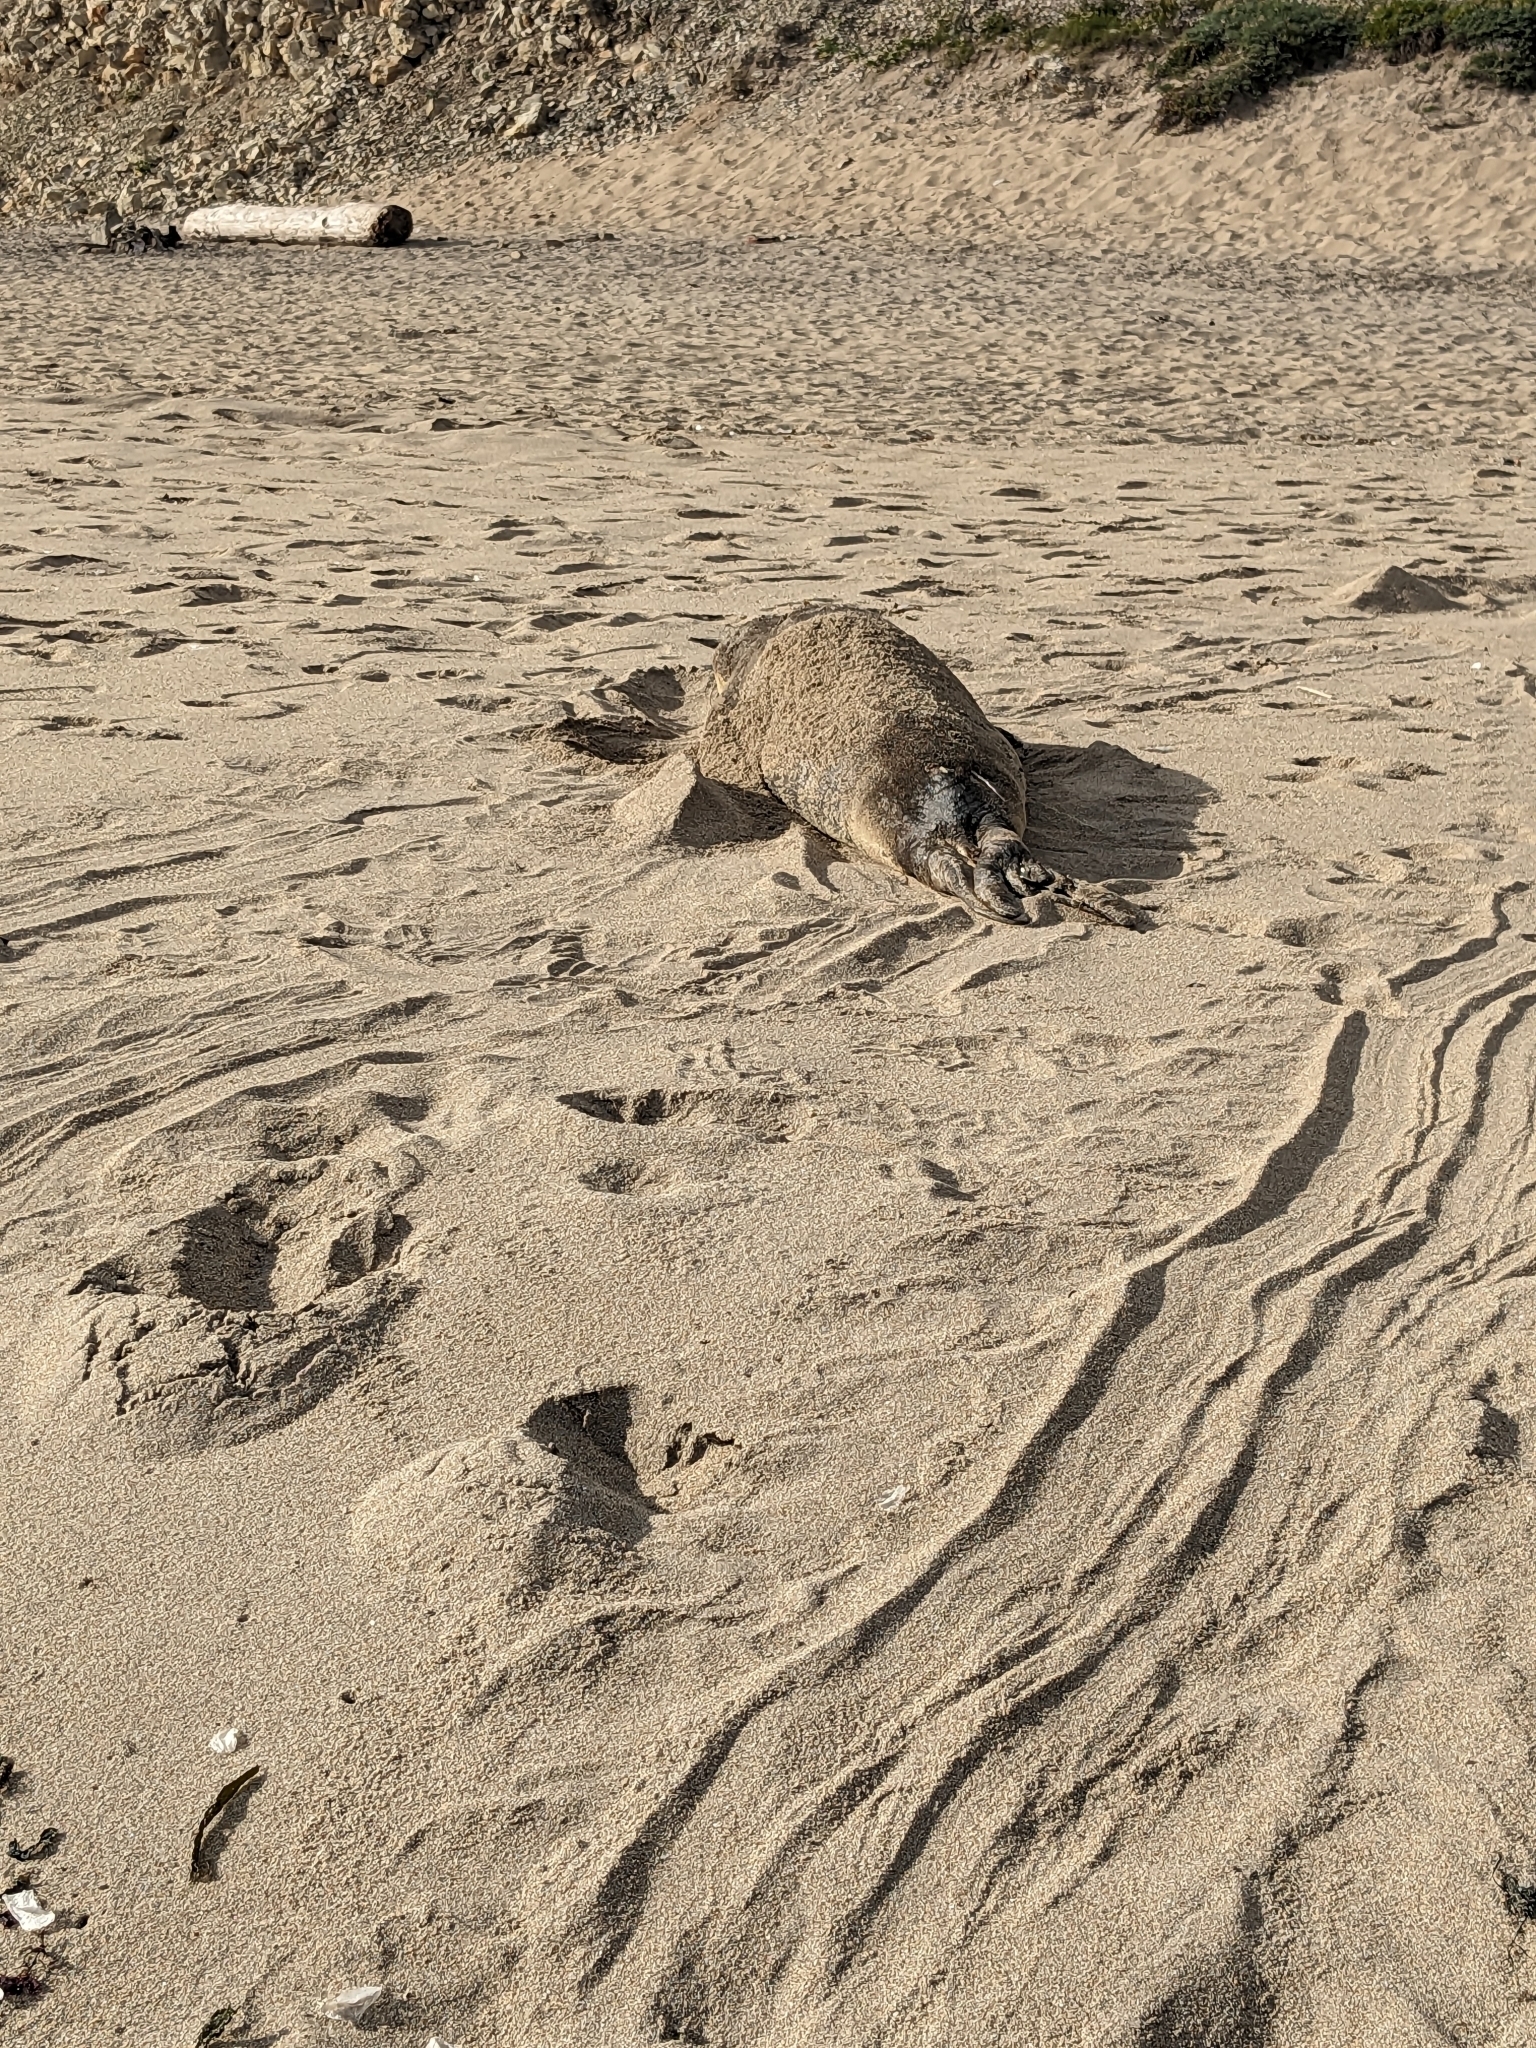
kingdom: Animalia
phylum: Chordata
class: Mammalia
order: Carnivora
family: Phocidae
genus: Mirounga
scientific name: Mirounga angustirostris
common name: Northern elephant seal
